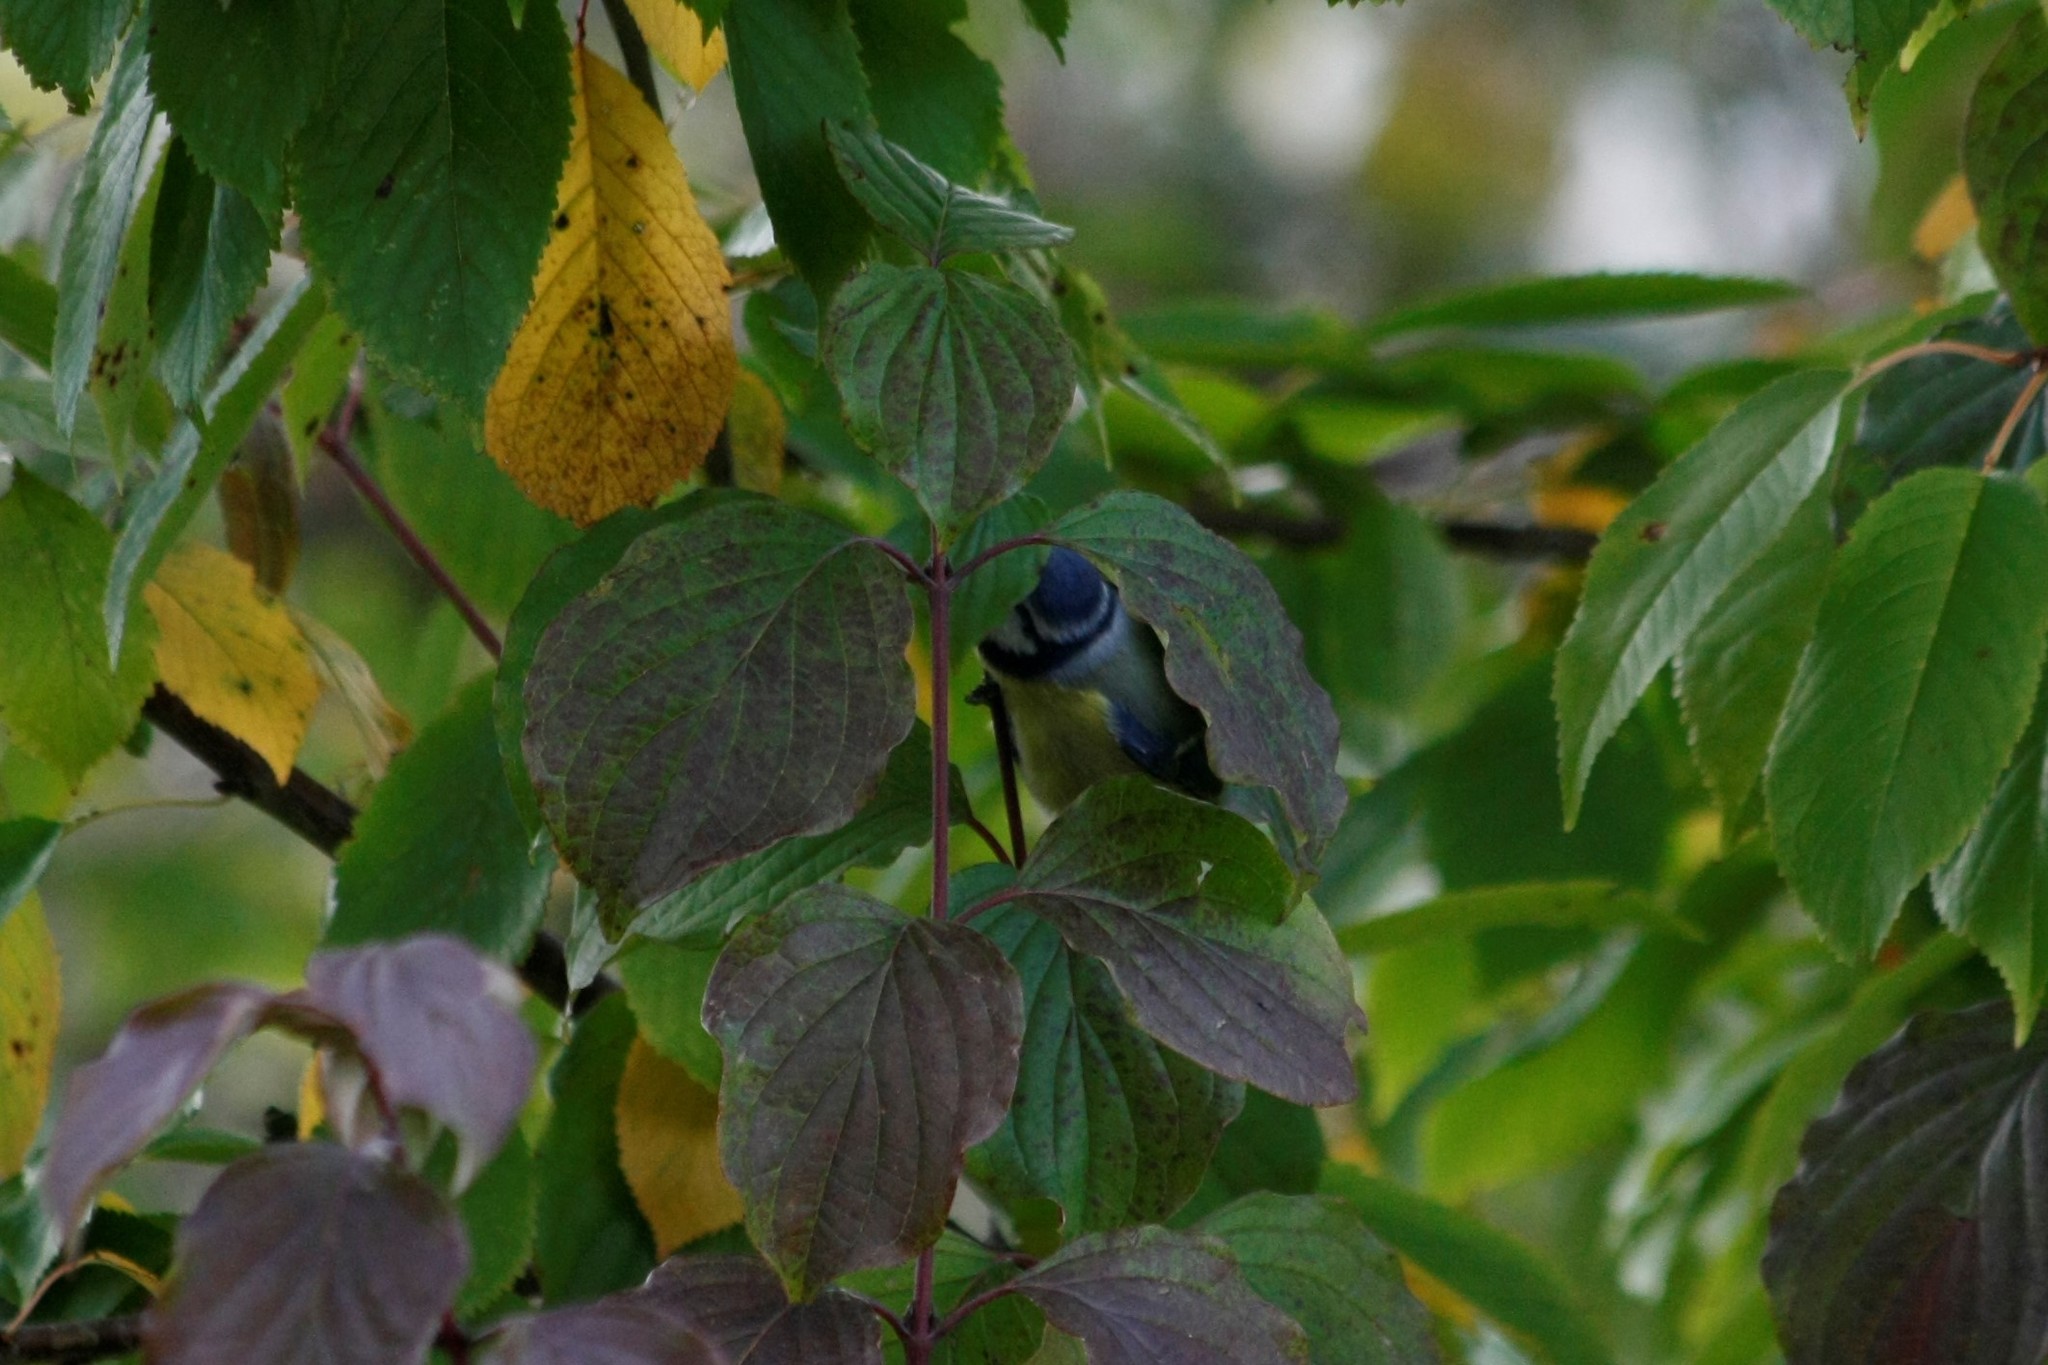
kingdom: Animalia
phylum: Chordata
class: Aves
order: Passeriformes
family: Paridae
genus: Cyanistes
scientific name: Cyanistes caeruleus
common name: Eurasian blue tit
